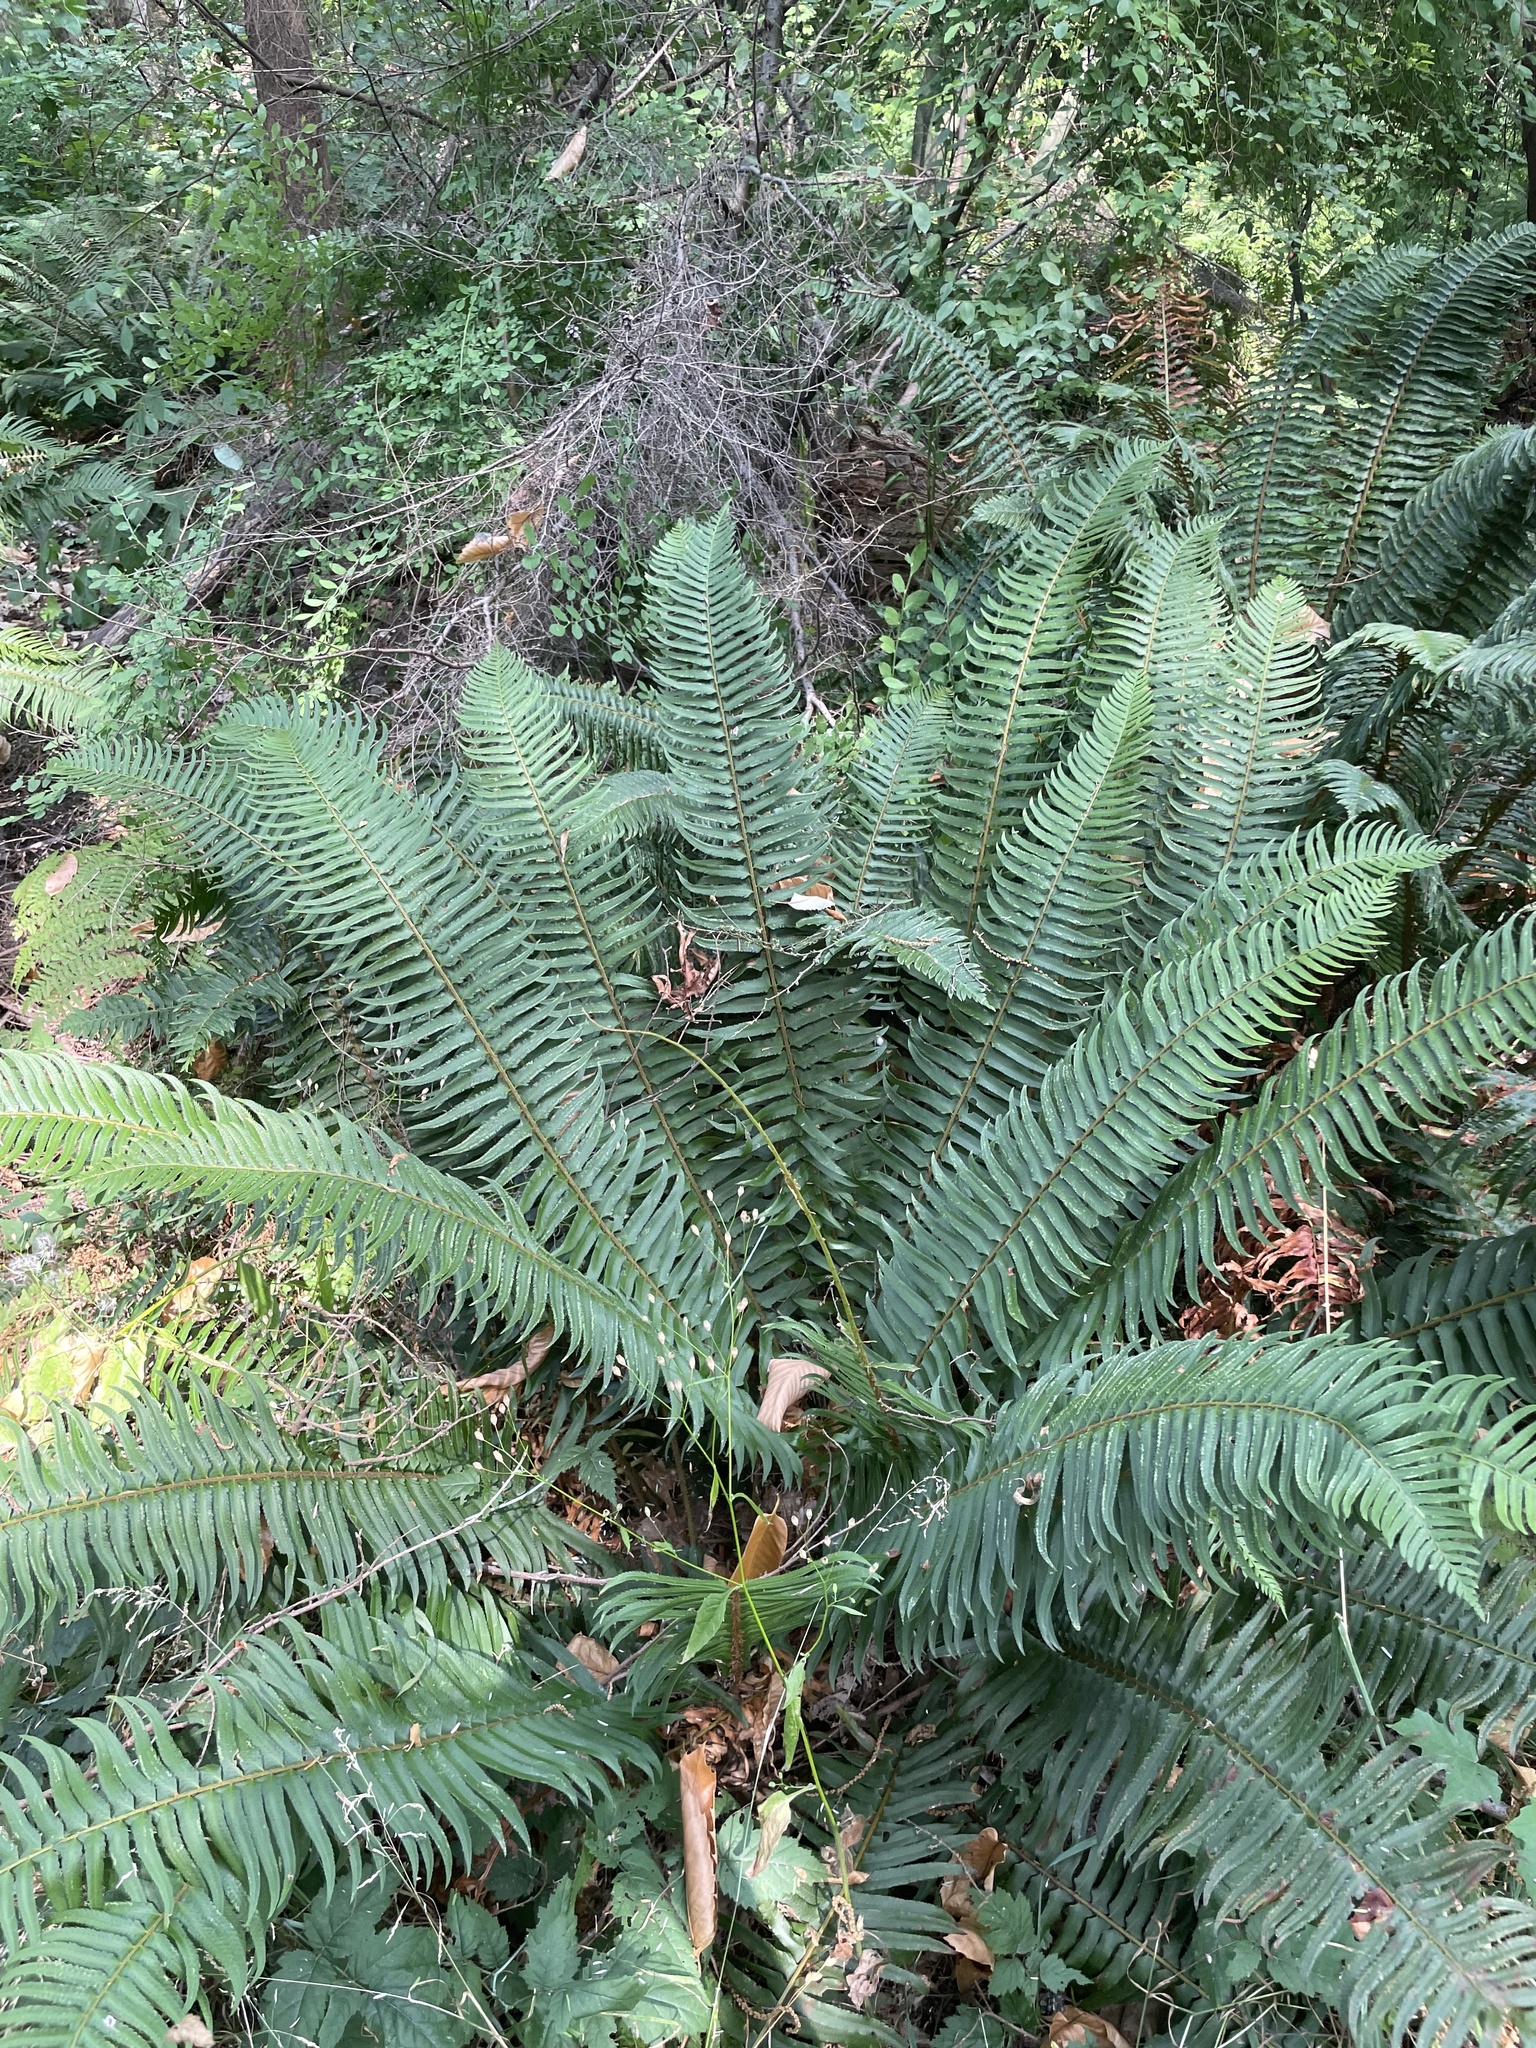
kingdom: Plantae
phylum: Tracheophyta
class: Polypodiopsida
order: Polypodiales
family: Dryopteridaceae
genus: Polystichum
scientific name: Polystichum munitum
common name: Western sword-fern
